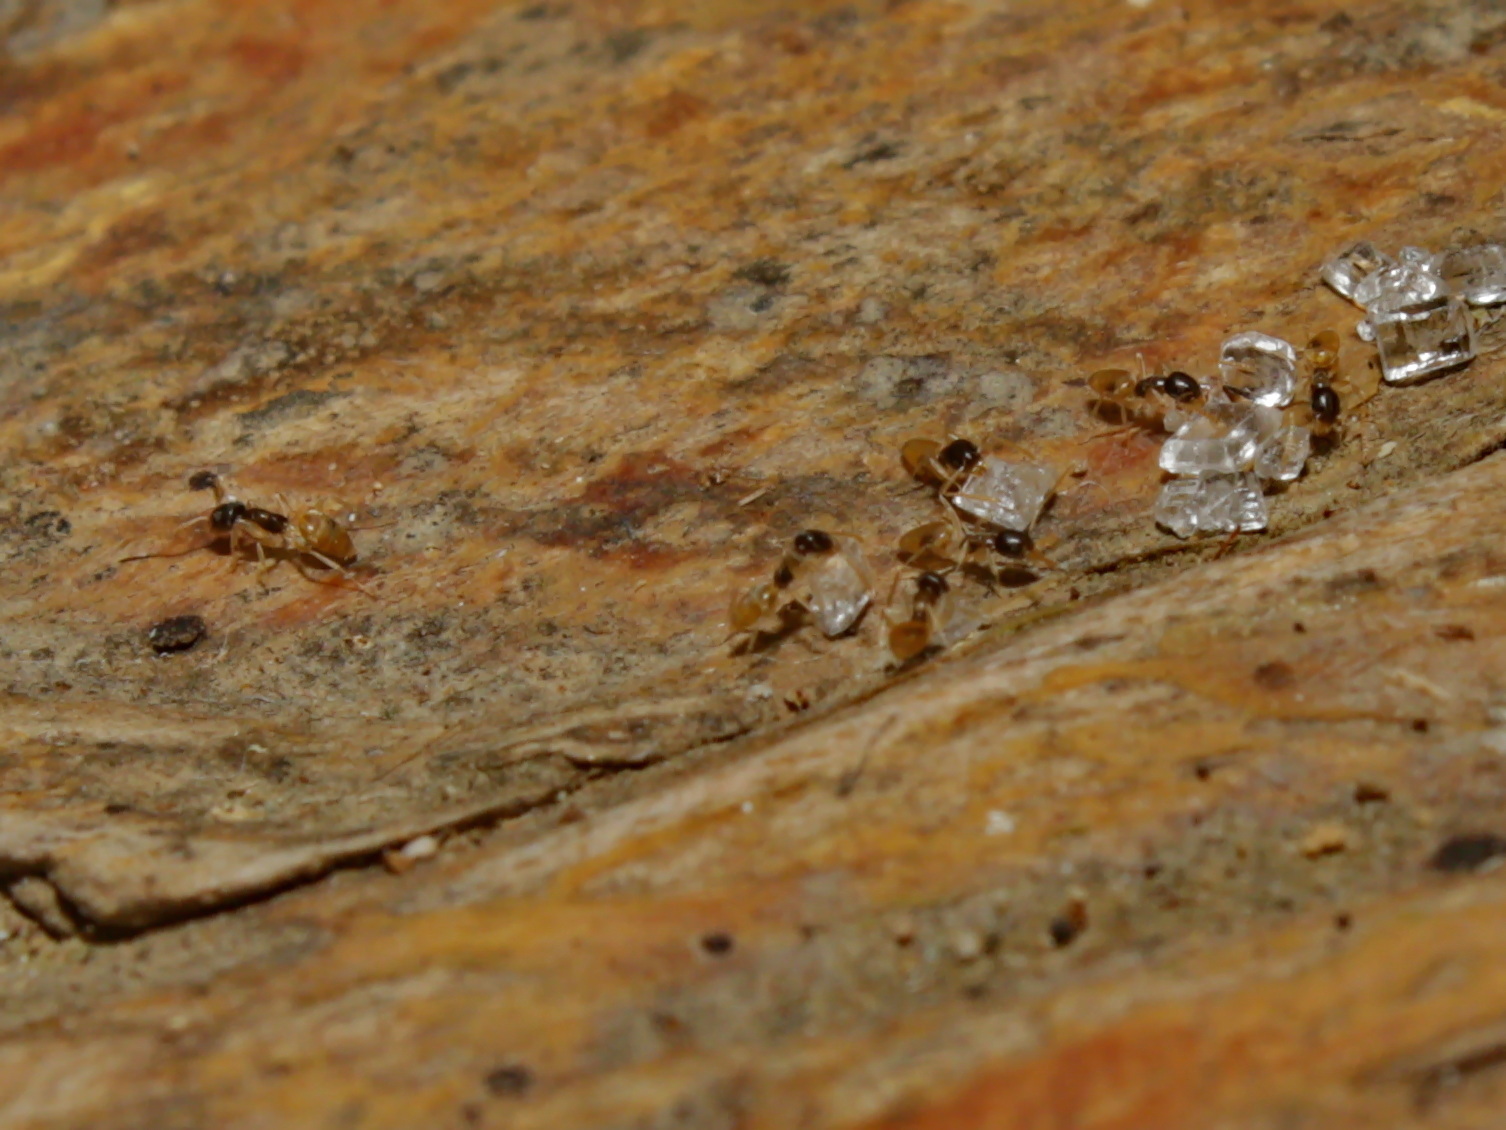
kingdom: Animalia
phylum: Arthropoda
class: Insecta
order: Hymenoptera
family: Formicidae
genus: Tapinoma
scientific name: Tapinoma melanocephalum
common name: Ghost ant
